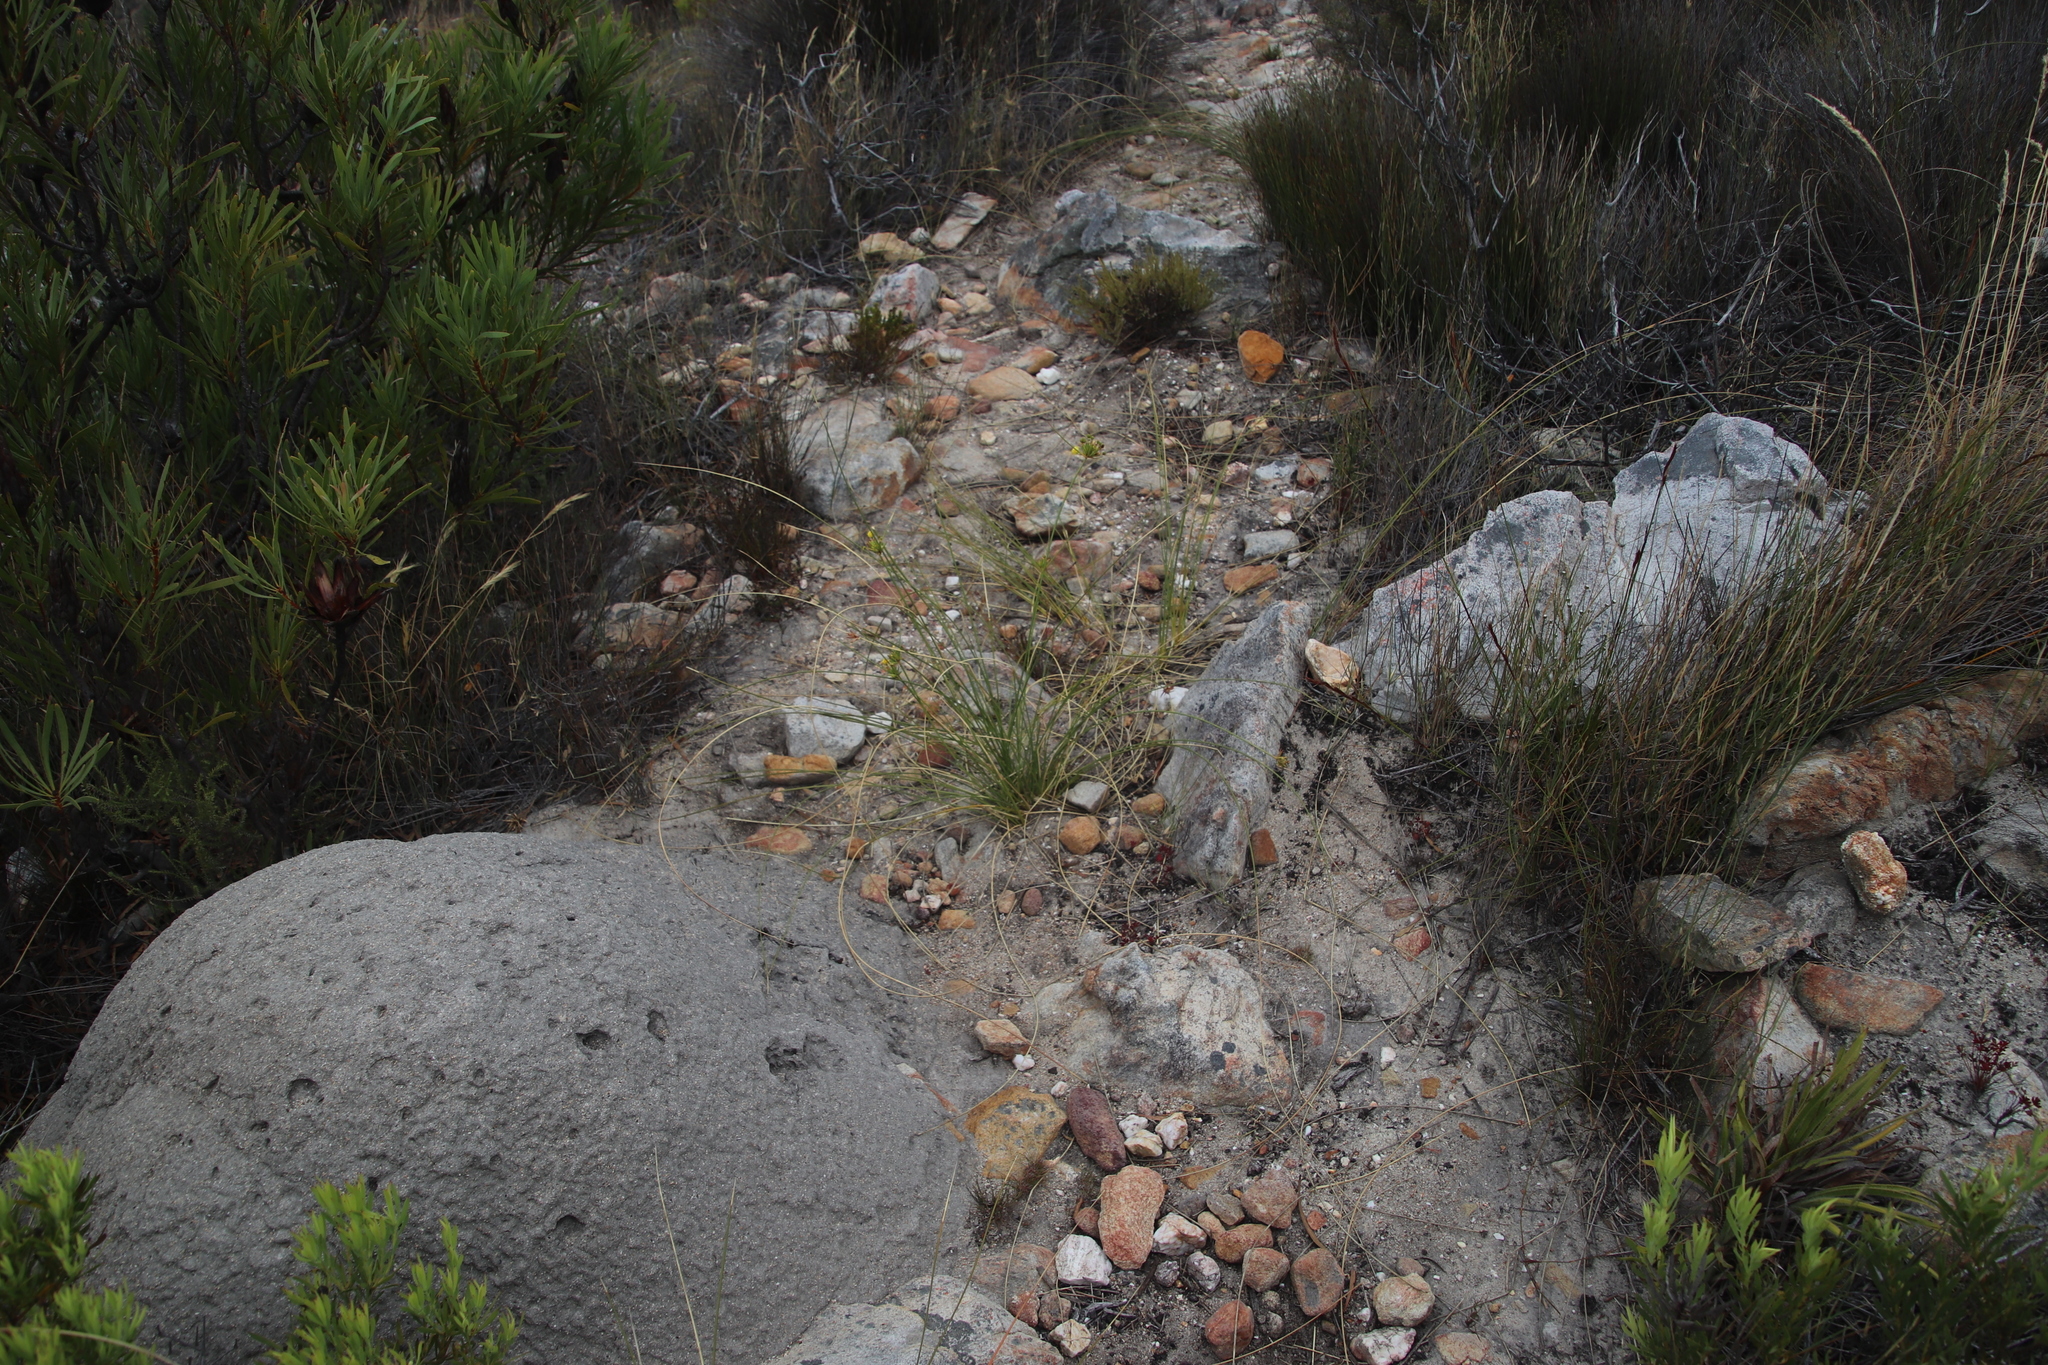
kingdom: Plantae
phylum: Tracheophyta
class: Liliopsida
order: Asparagales
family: Iridaceae
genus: Bobartia
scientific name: Bobartia gladiata
